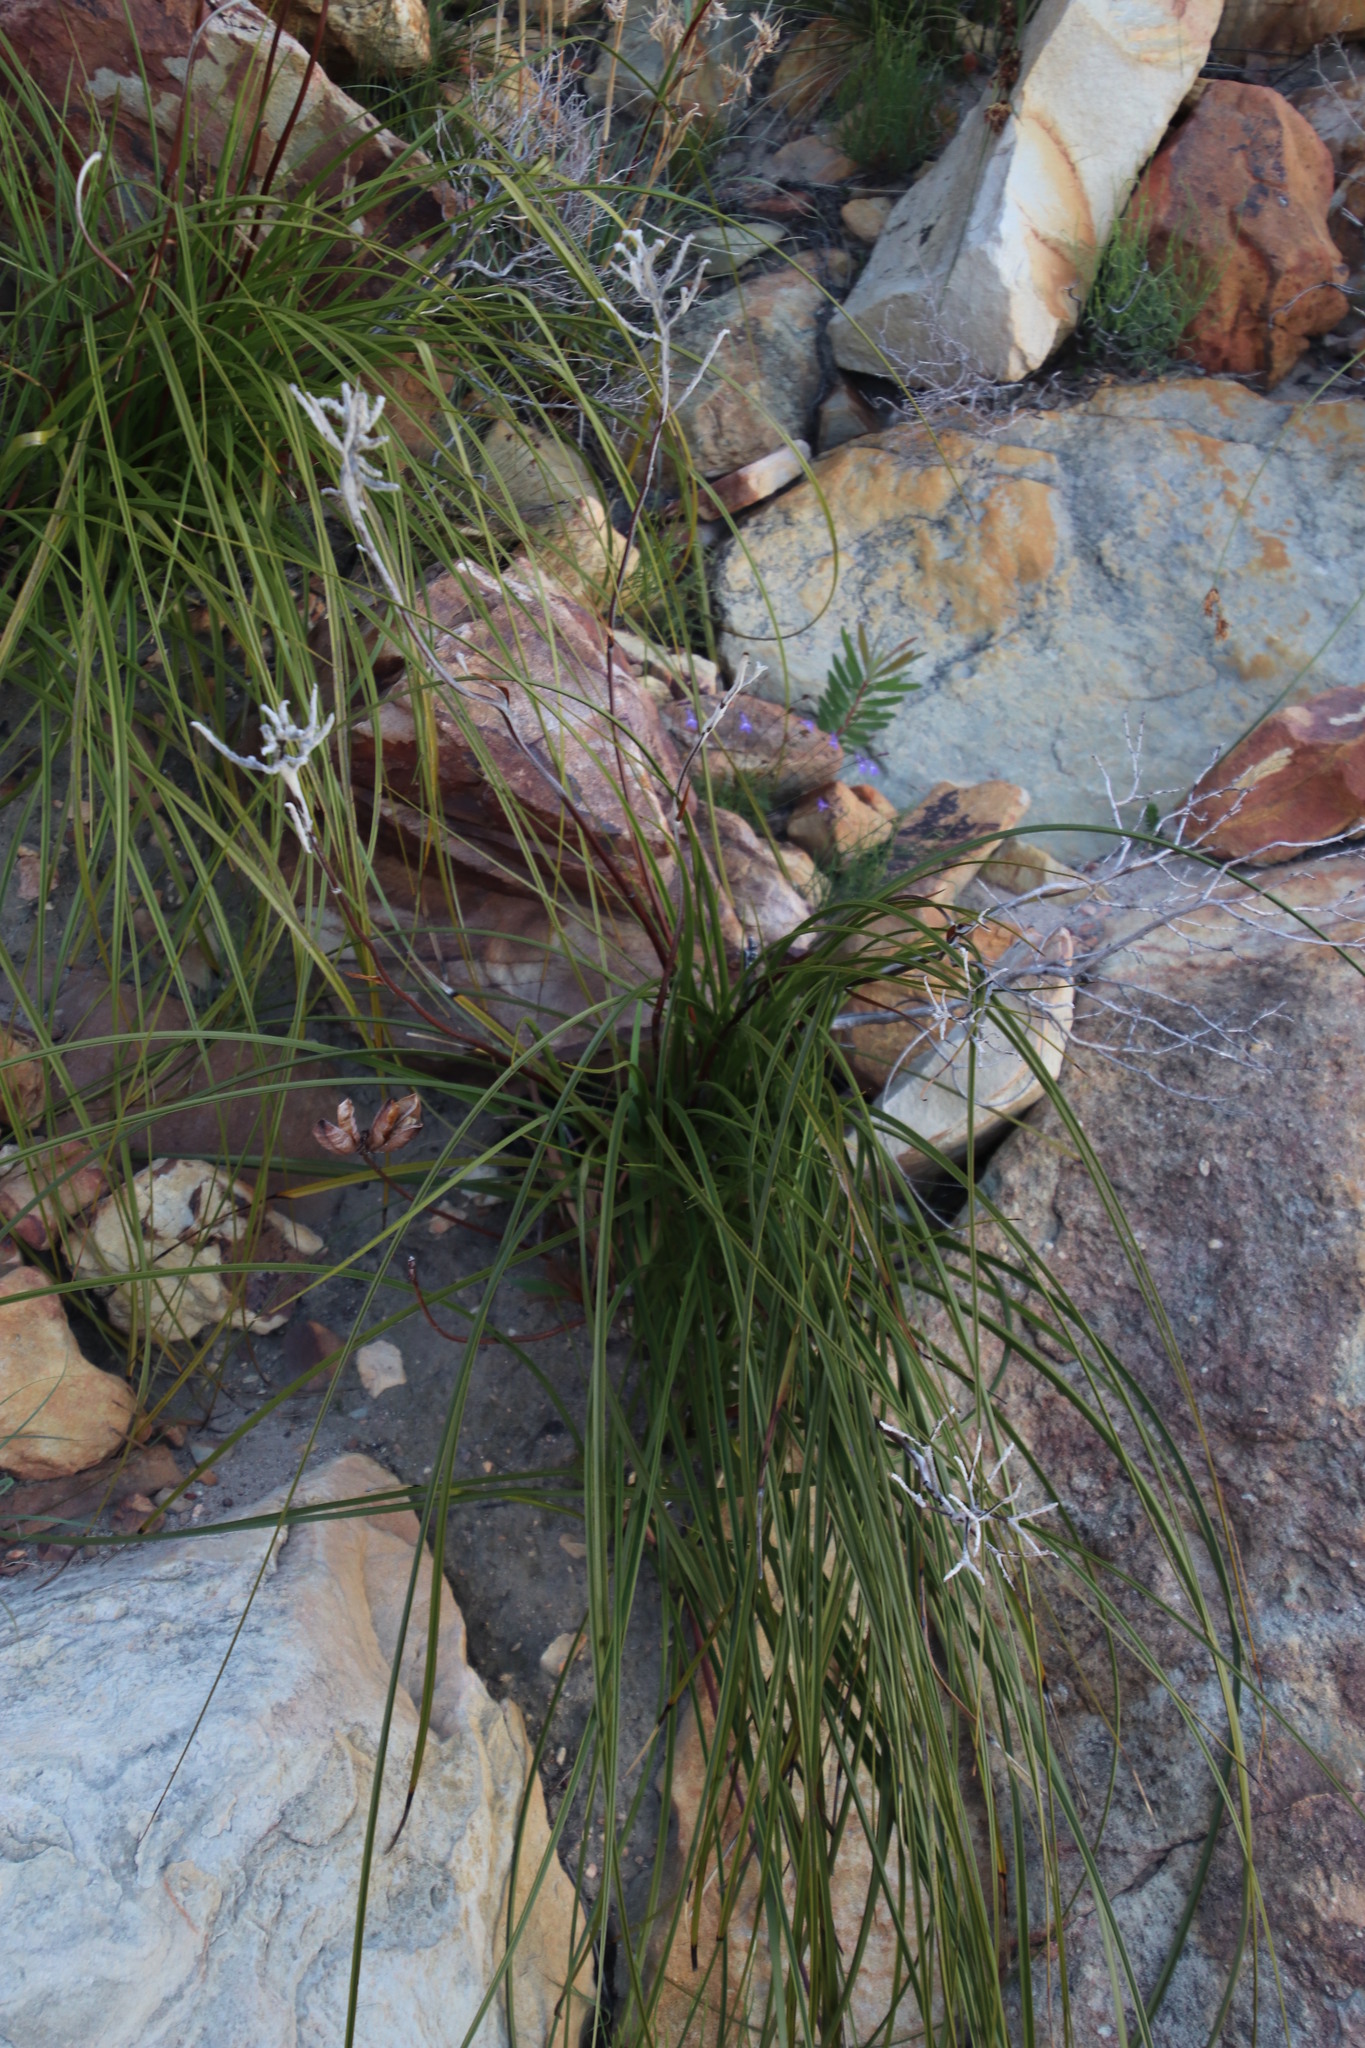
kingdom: Plantae
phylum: Tracheophyta
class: Liliopsida
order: Asparagales
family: Lanariaceae
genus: Lanaria
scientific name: Lanaria lanata
